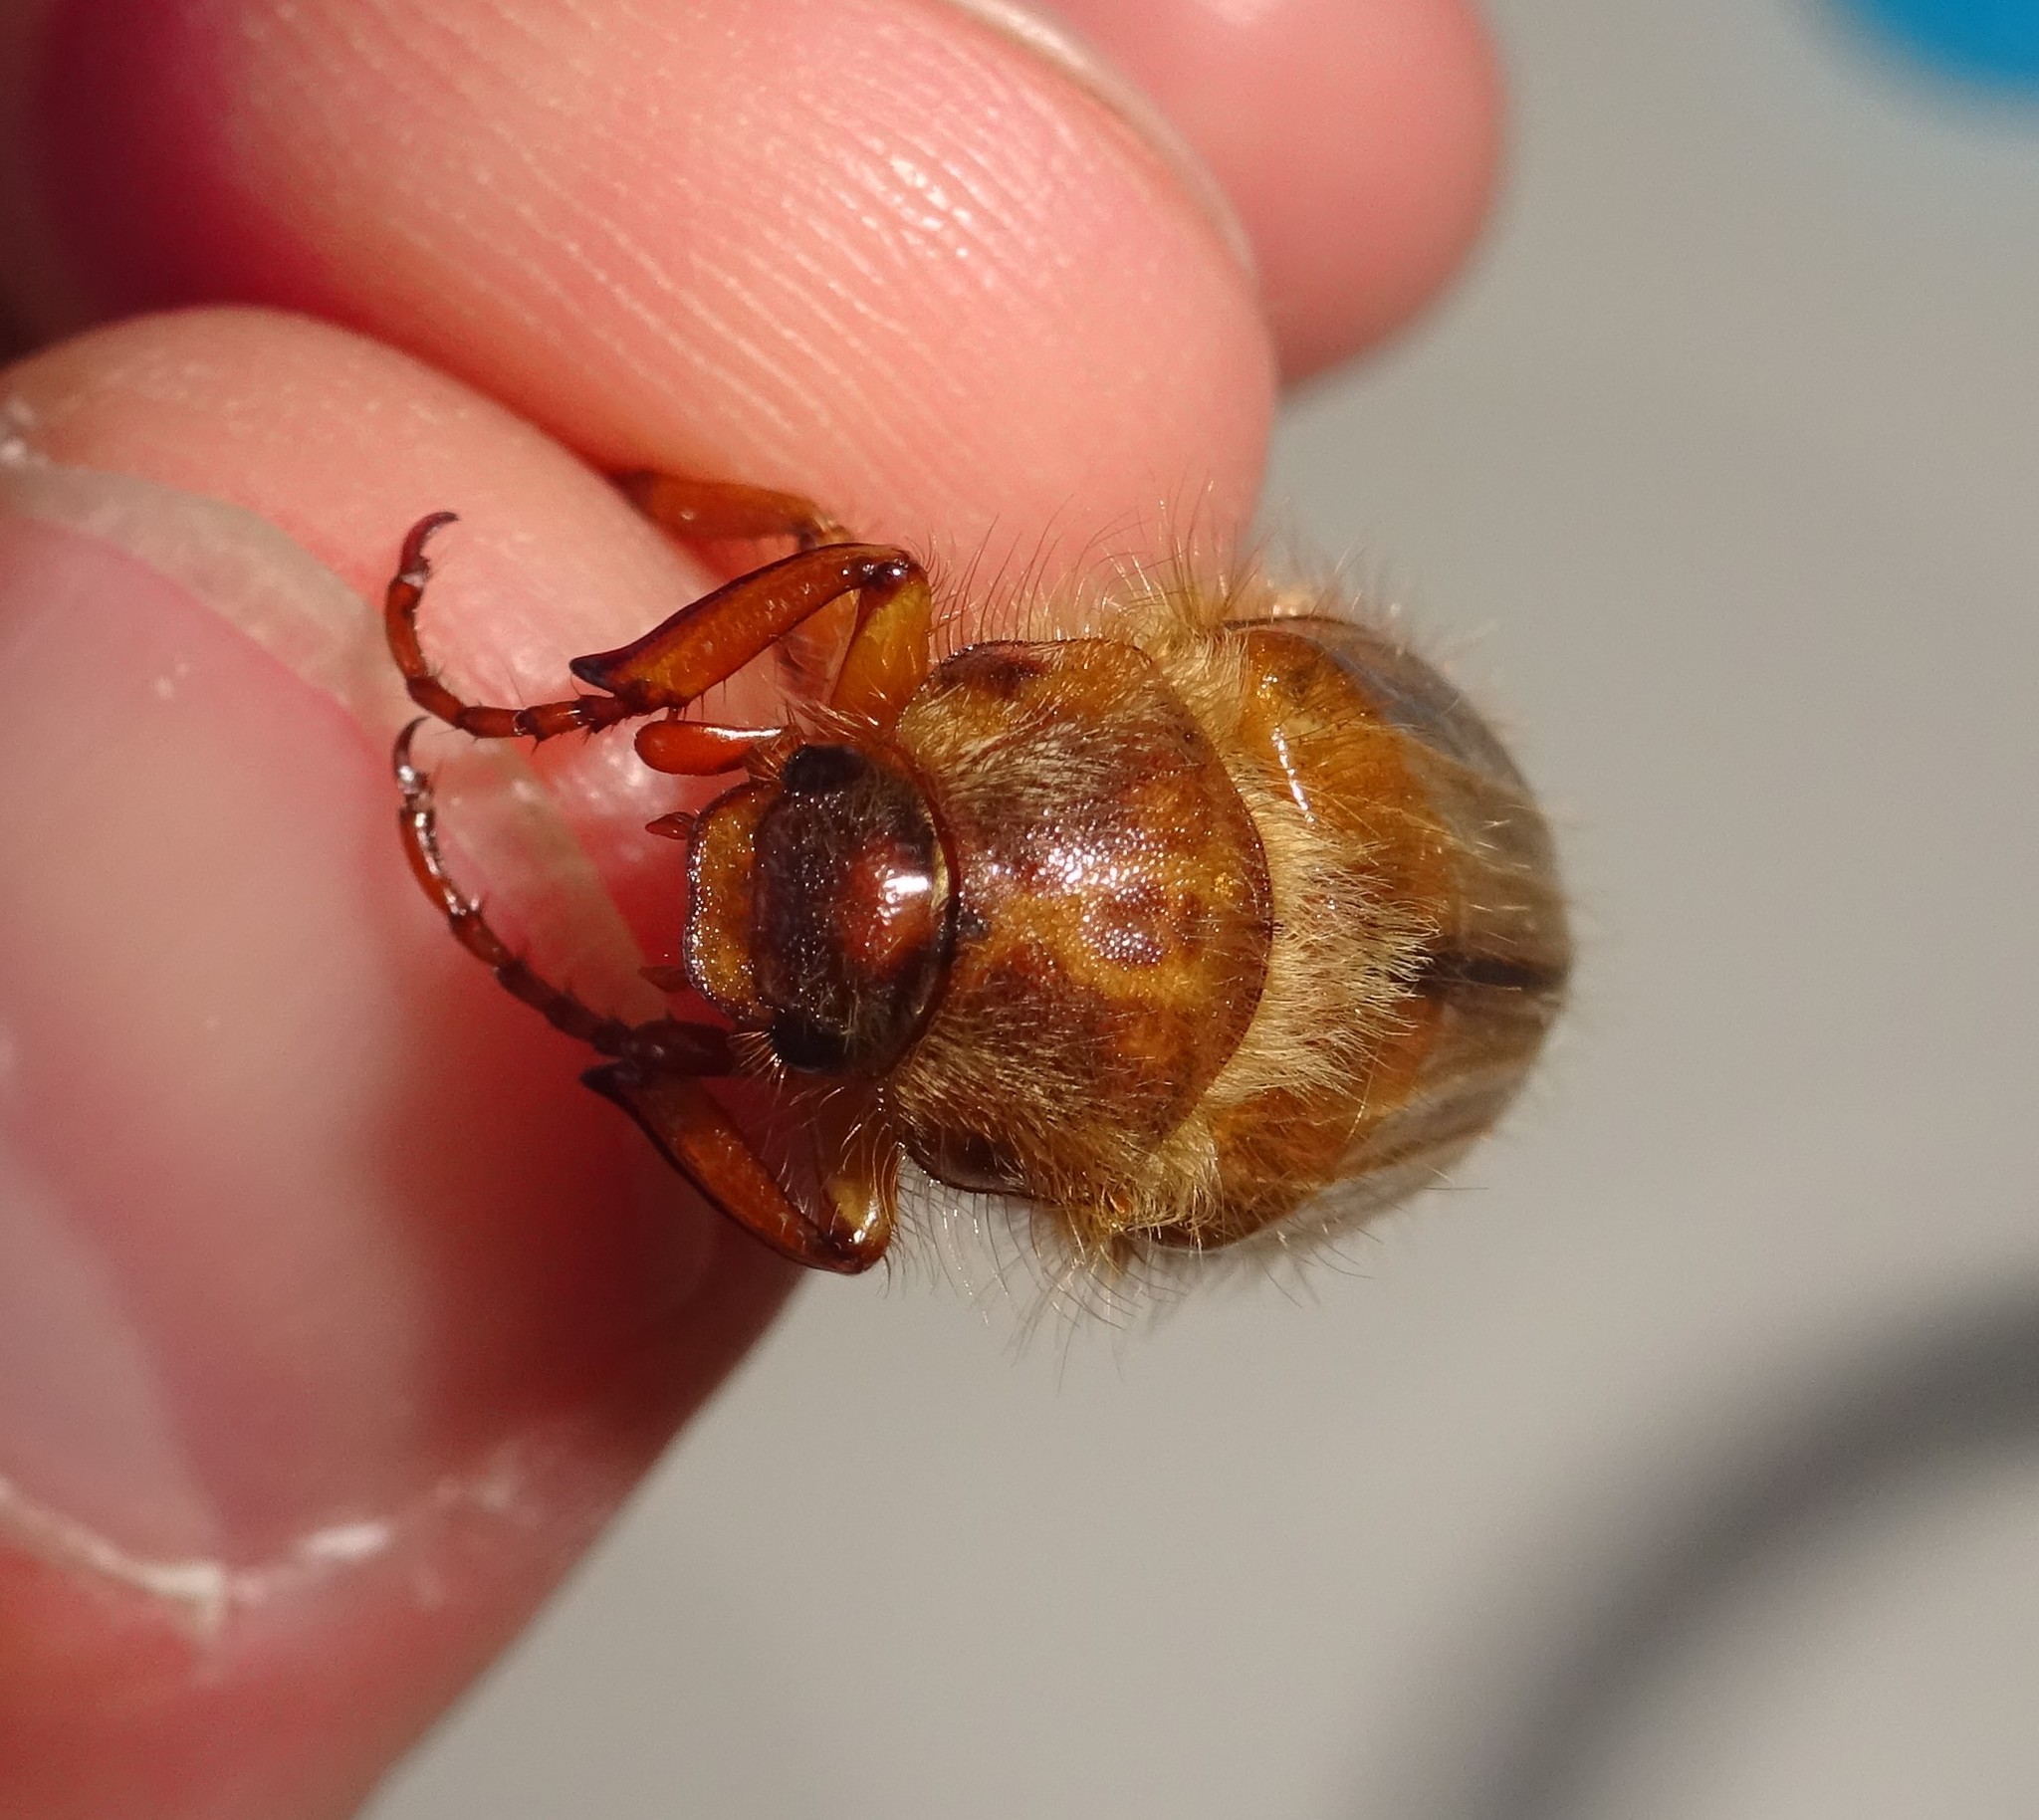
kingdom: Animalia
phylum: Arthropoda
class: Insecta
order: Coleoptera
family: Scarabaeidae
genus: Amphimallon
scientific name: Amphimallon solstitiale
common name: Summer chafer
